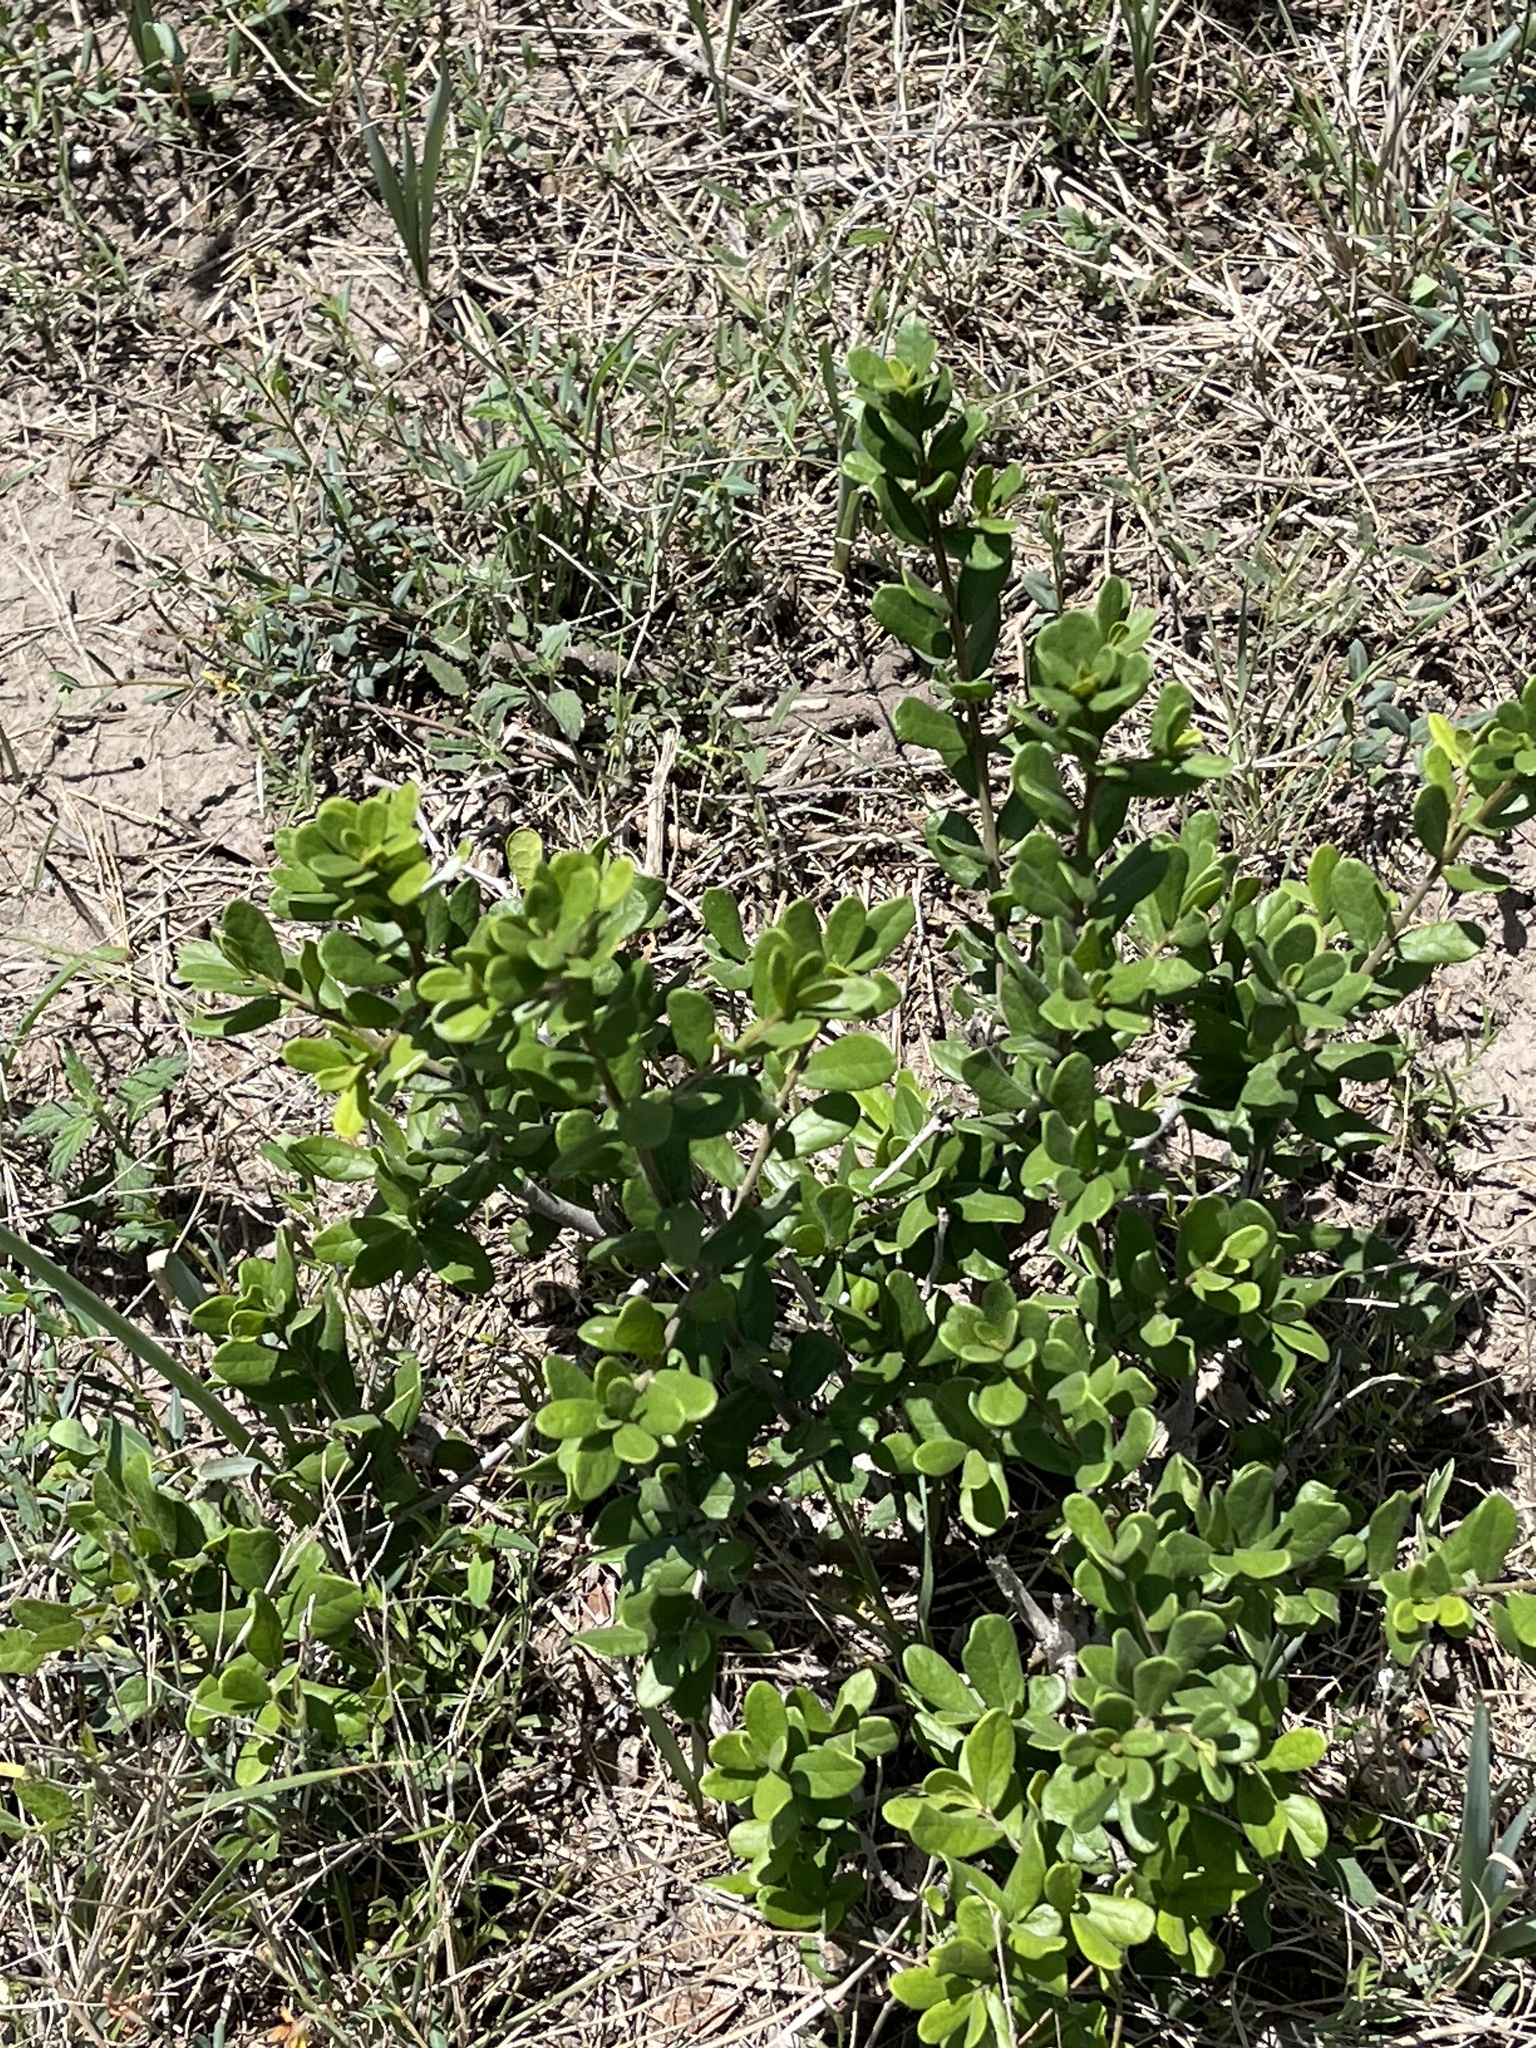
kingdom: Plantae
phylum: Tracheophyta
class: Magnoliopsida
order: Ericales
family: Ebenaceae
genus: Diospyros
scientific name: Diospyros texana
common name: Texas persimmon
